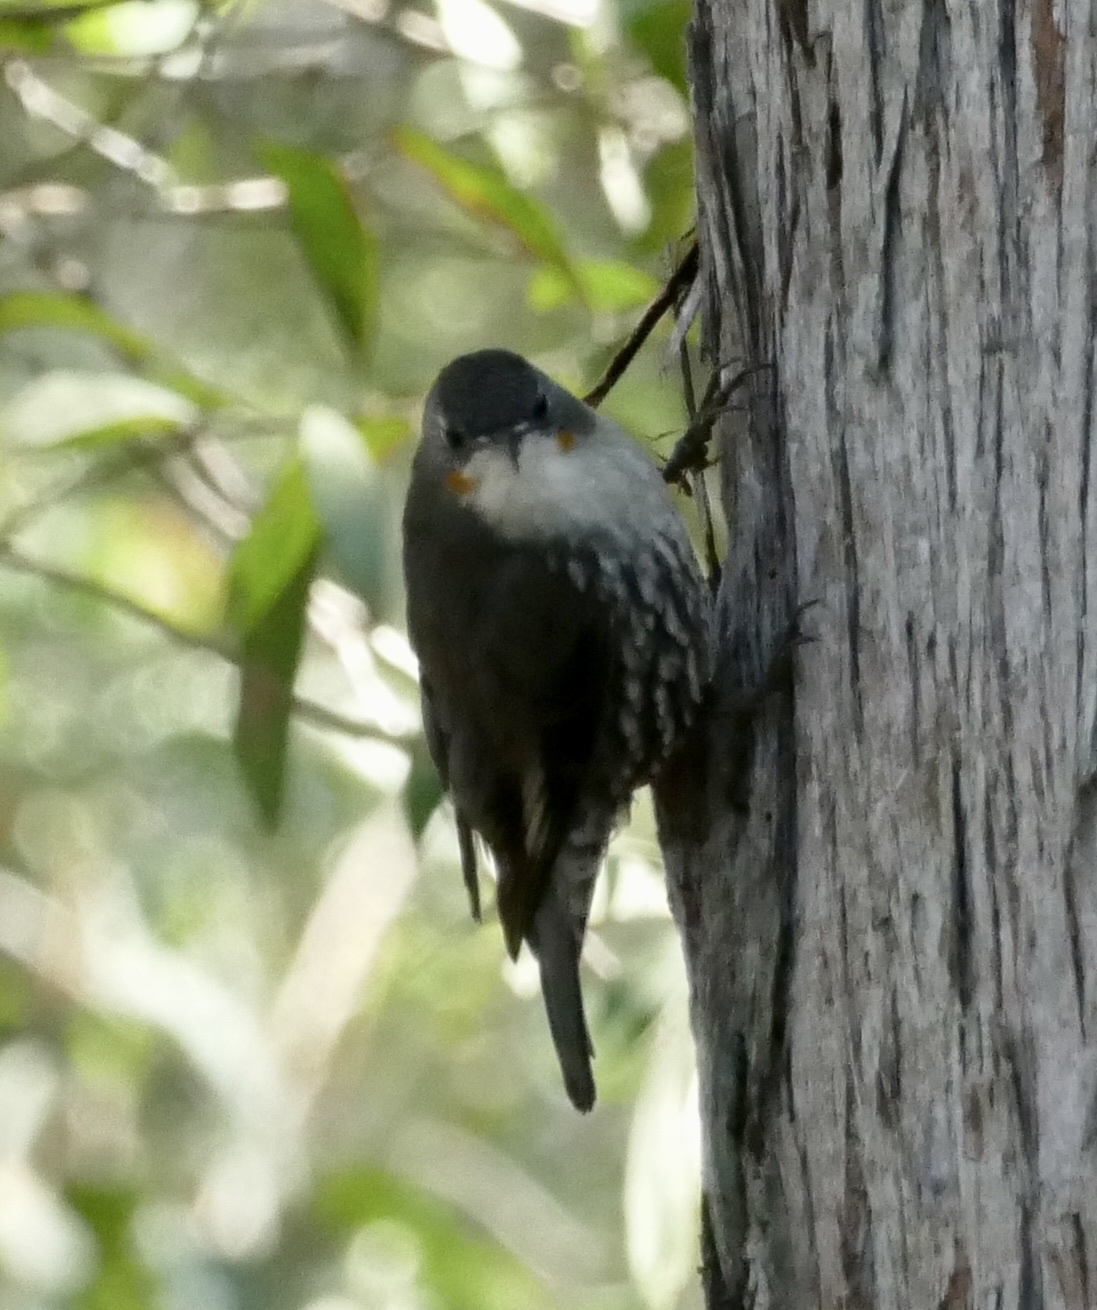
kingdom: Animalia
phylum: Chordata
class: Aves
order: Passeriformes
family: Climacteridae
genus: Cormobates
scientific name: Cormobates leucophaea
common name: White-throated treecreeper
